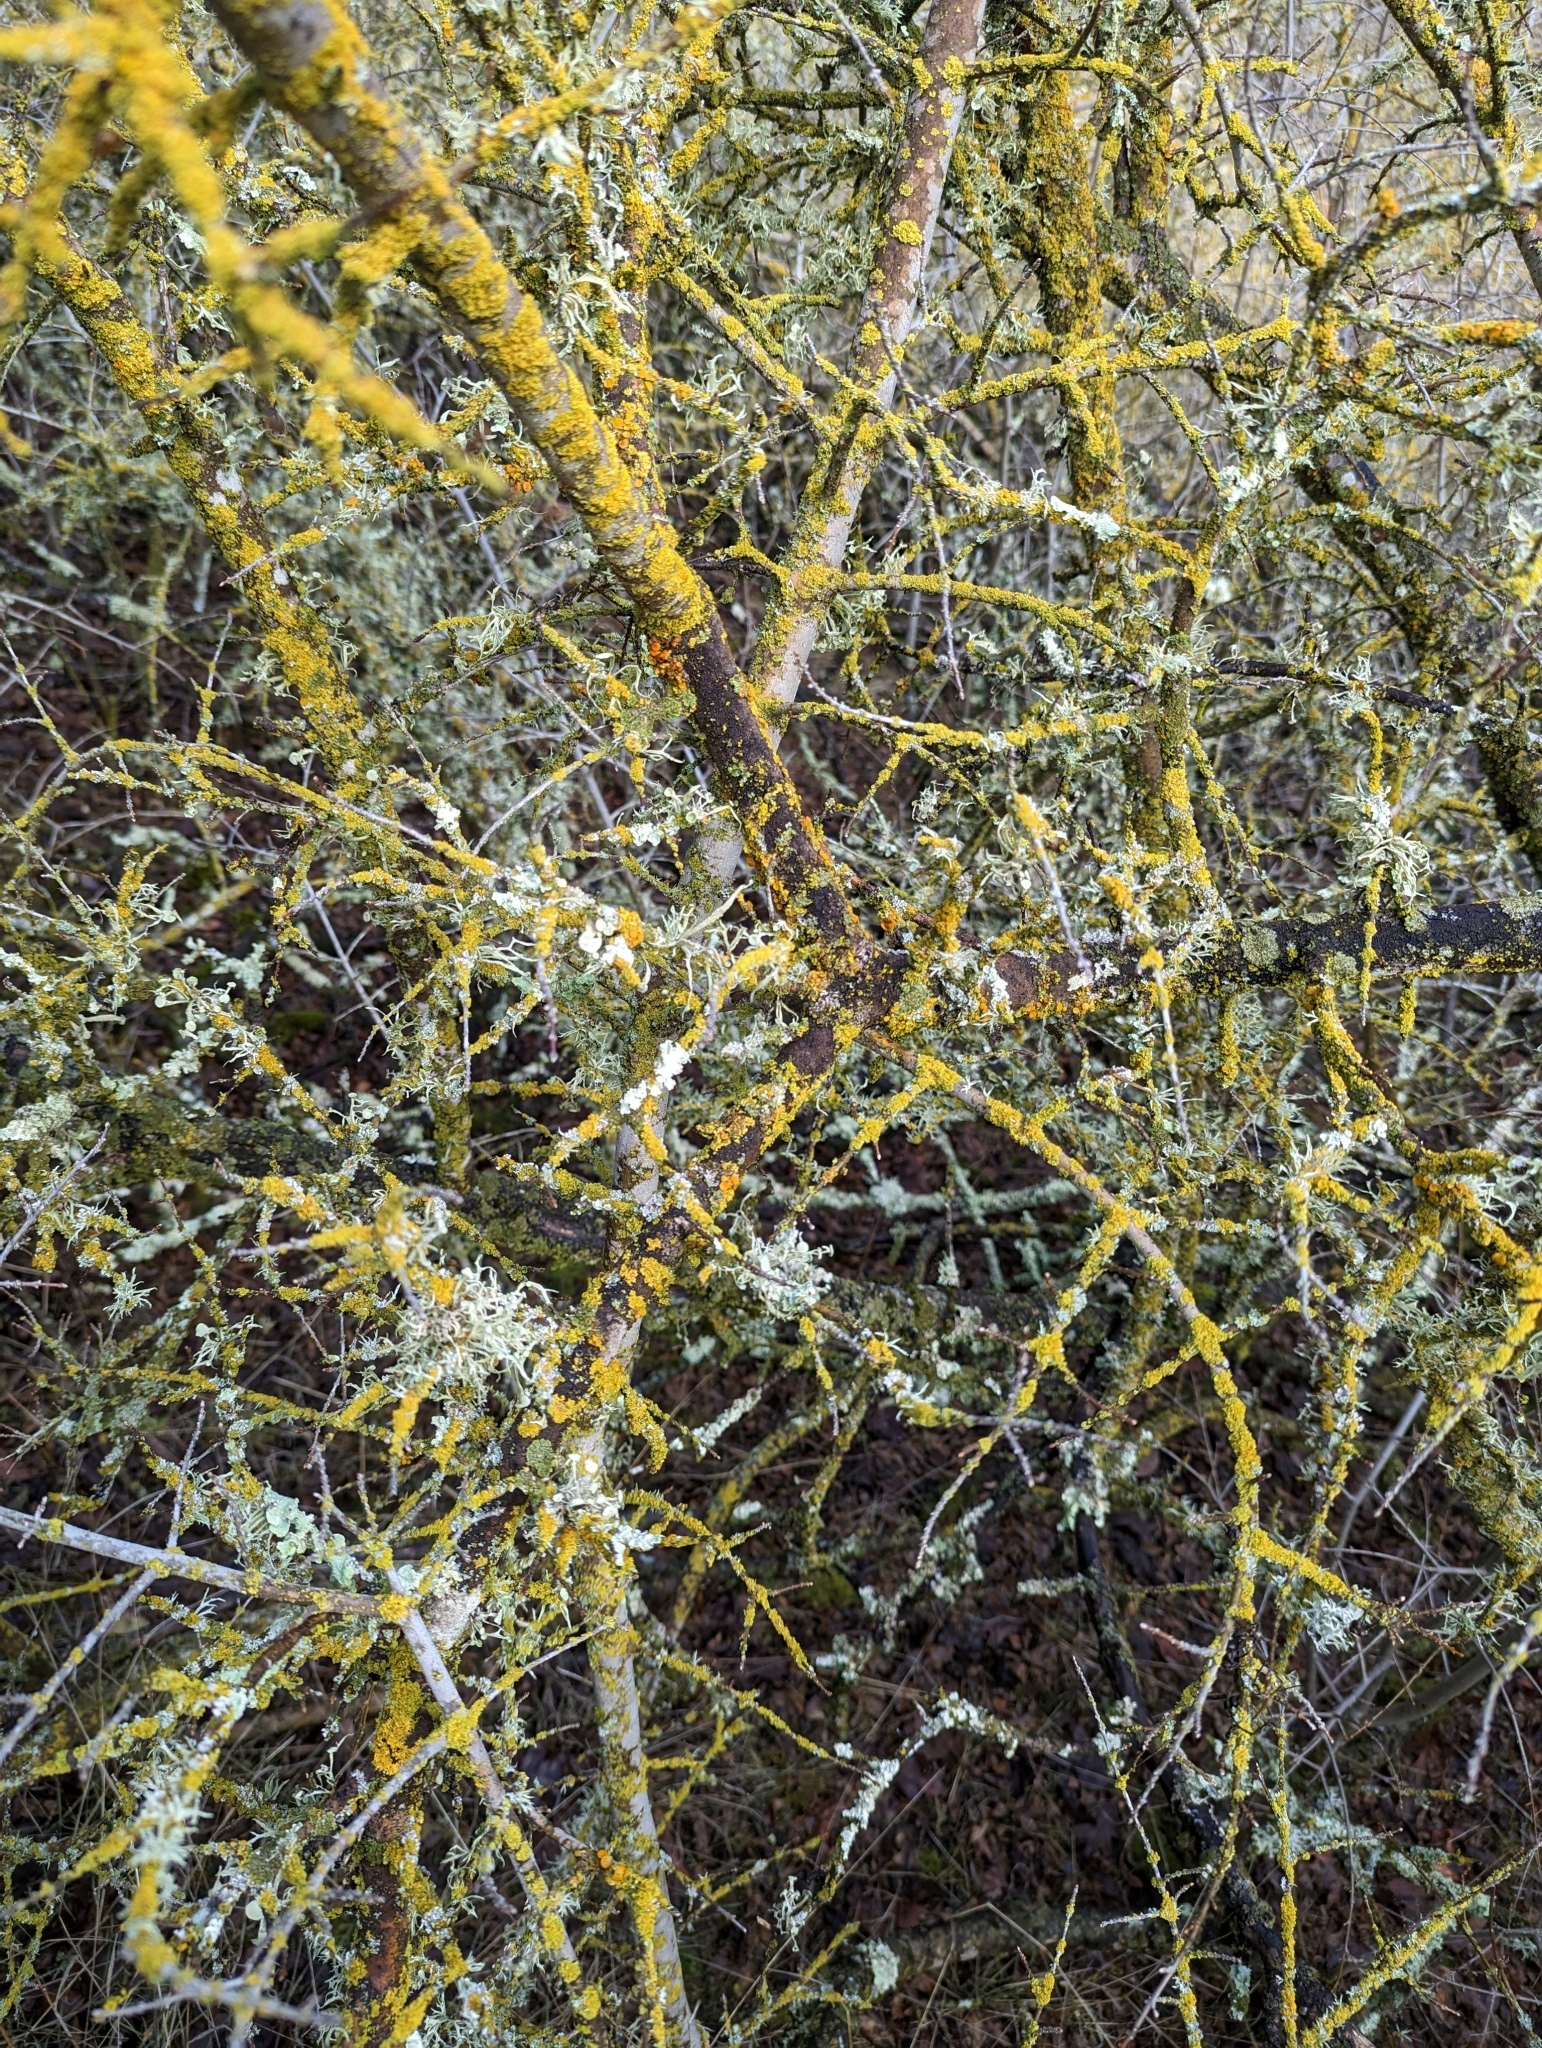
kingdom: Fungi
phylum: Ascomycota
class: Lecanoromycetes
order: Teloschistales
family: Teloschistaceae
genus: Gallowayella
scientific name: Gallowayella hasseana
